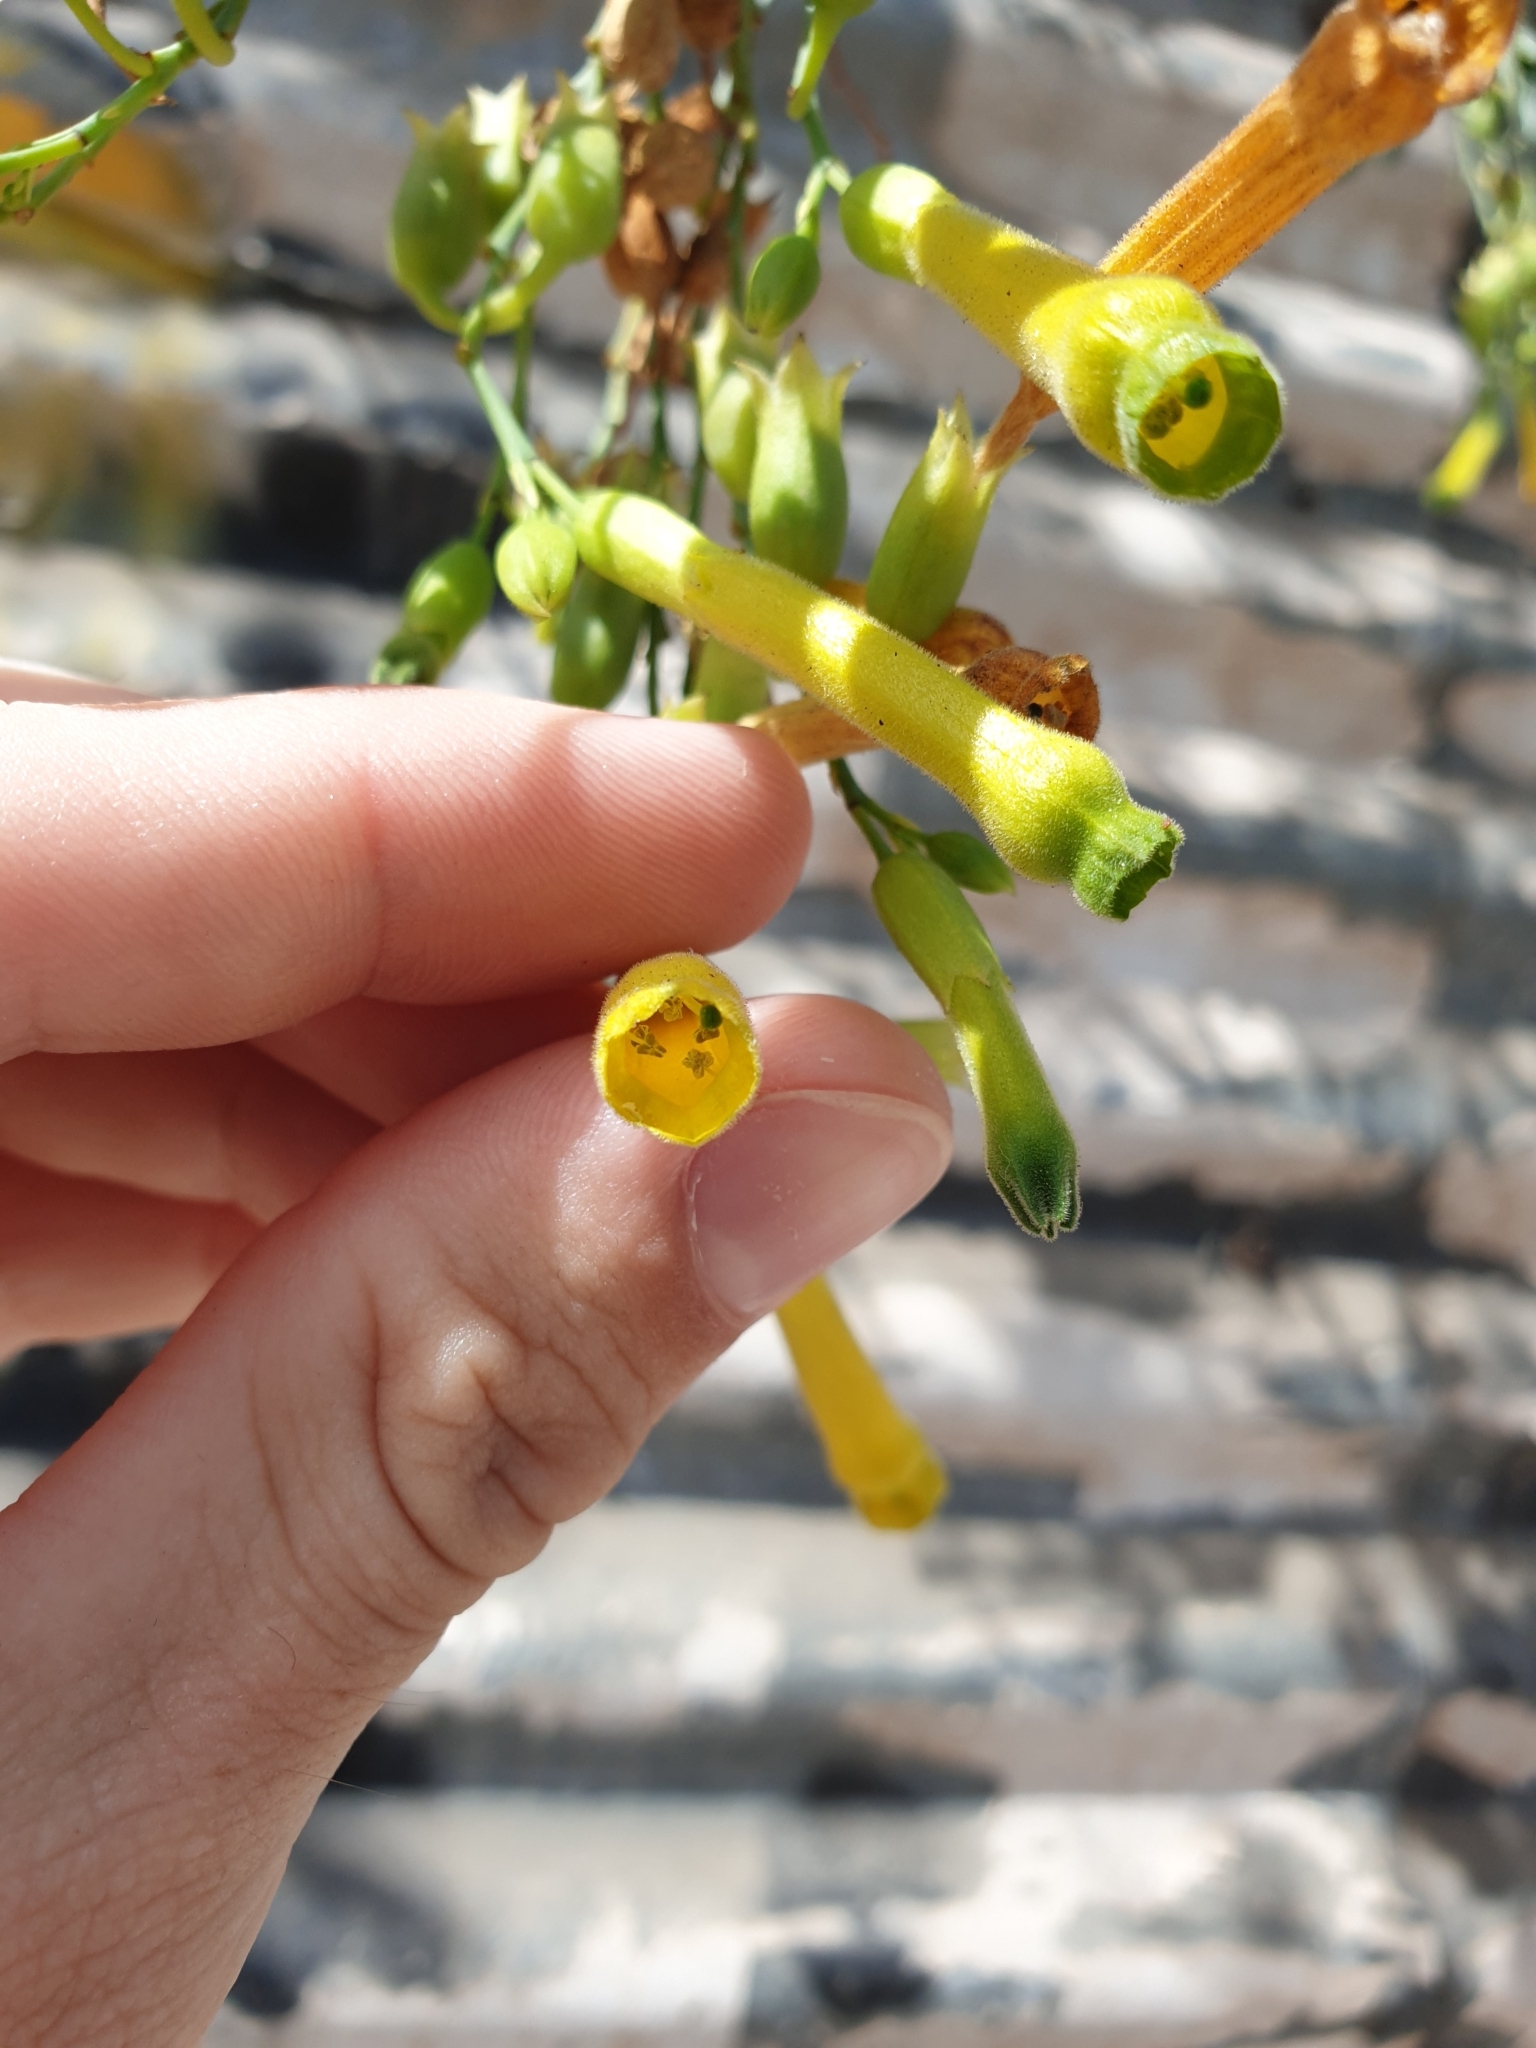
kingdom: Plantae
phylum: Tracheophyta
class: Magnoliopsida
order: Solanales
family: Solanaceae
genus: Nicotiana
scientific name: Nicotiana glauca
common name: Tree tobacco
